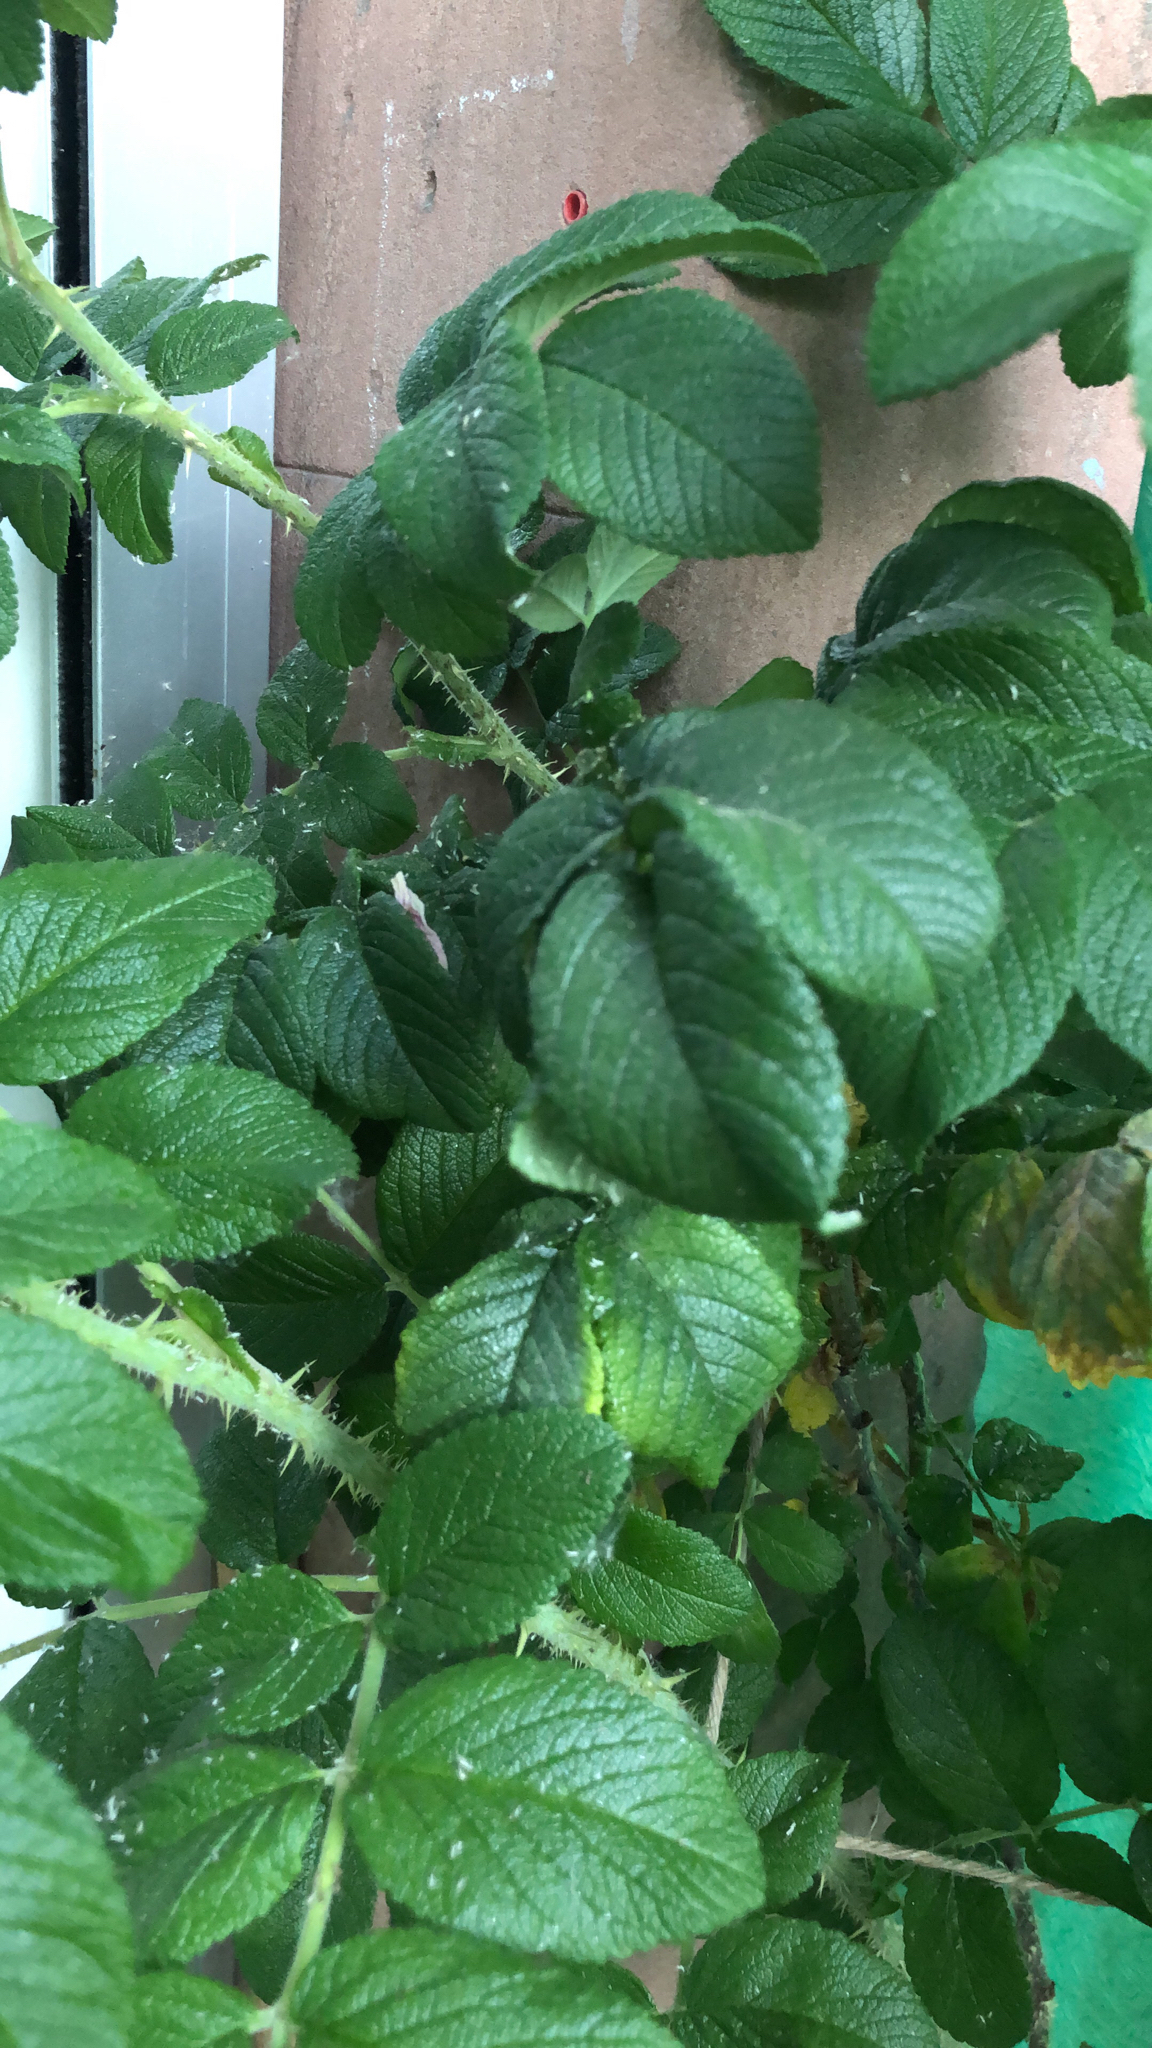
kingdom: Plantae
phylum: Tracheophyta
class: Magnoliopsida
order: Rosales
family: Rosaceae
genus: Rosa
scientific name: Rosa rugosa
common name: Japanese rose
